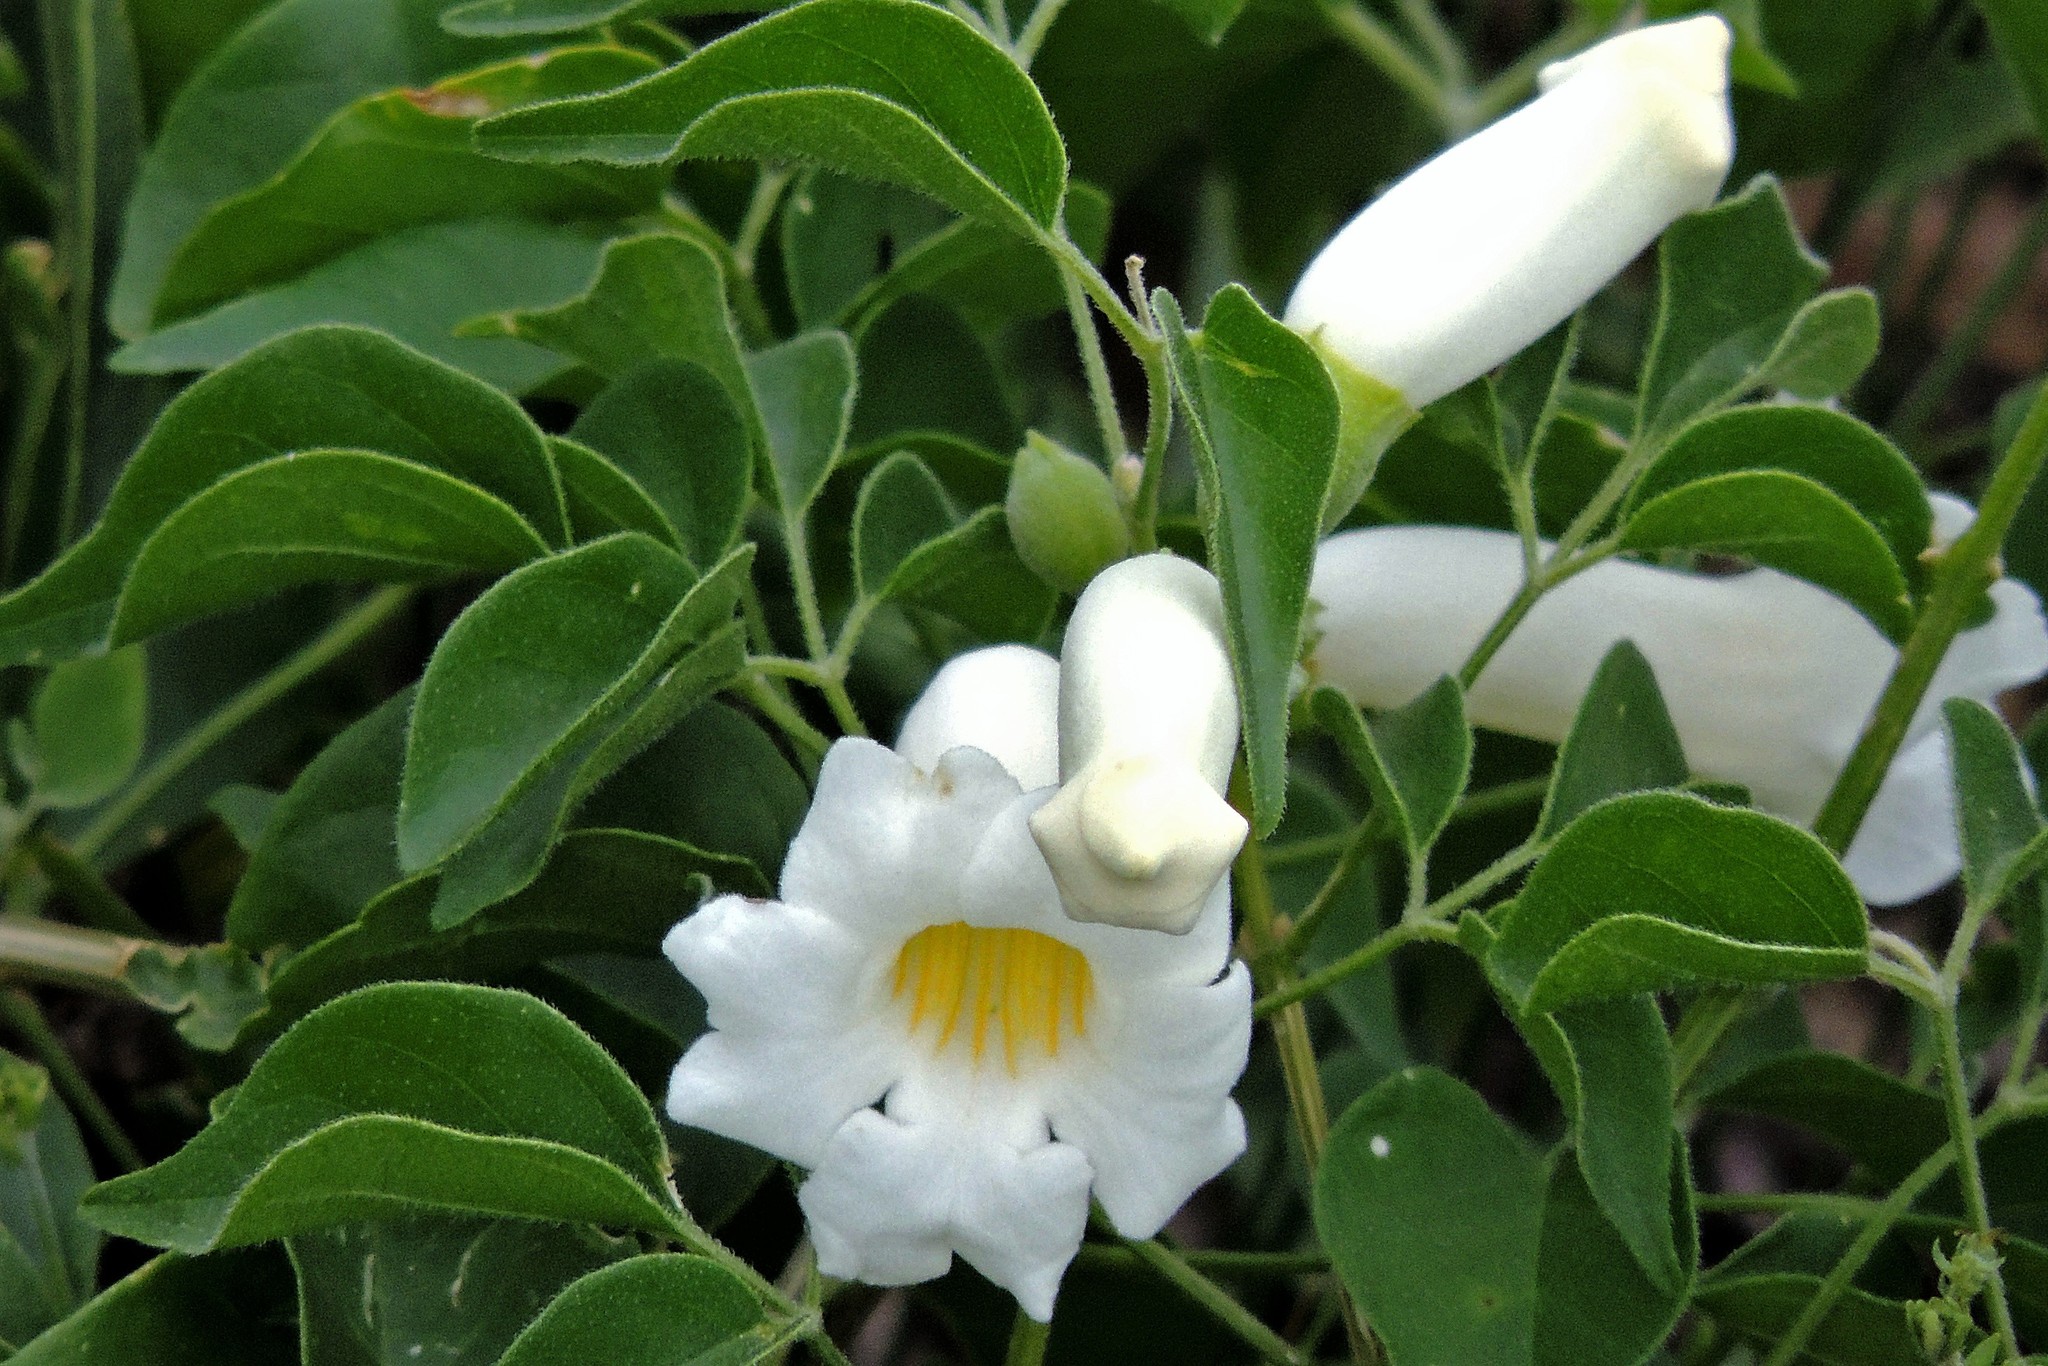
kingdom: Plantae
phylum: Tracheophyta
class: Magnoliopsida
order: Lamiales
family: Bignoniaceae
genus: Amphilophium
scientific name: Amphilophium carolinae
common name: Monkey's-comb
